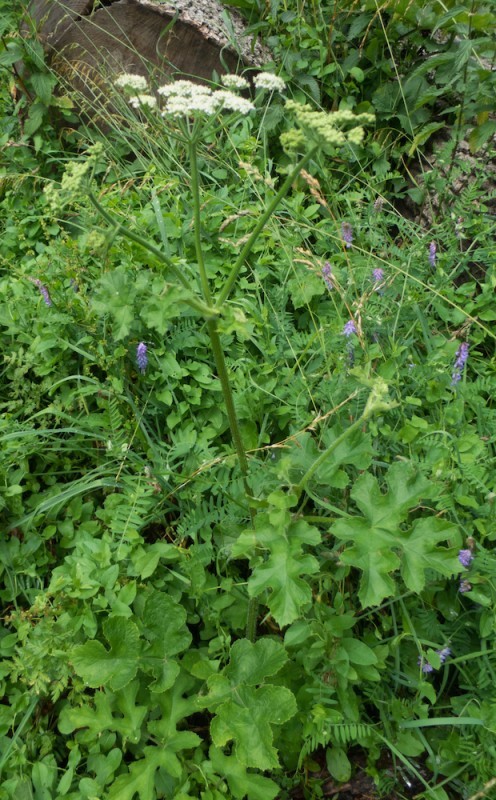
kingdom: Plantae
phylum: Tracheophyta
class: Magnoliopsida
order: Apiales
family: Apiaceae
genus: Heracleum
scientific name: Heracleum sphondylium
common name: Hogweed
